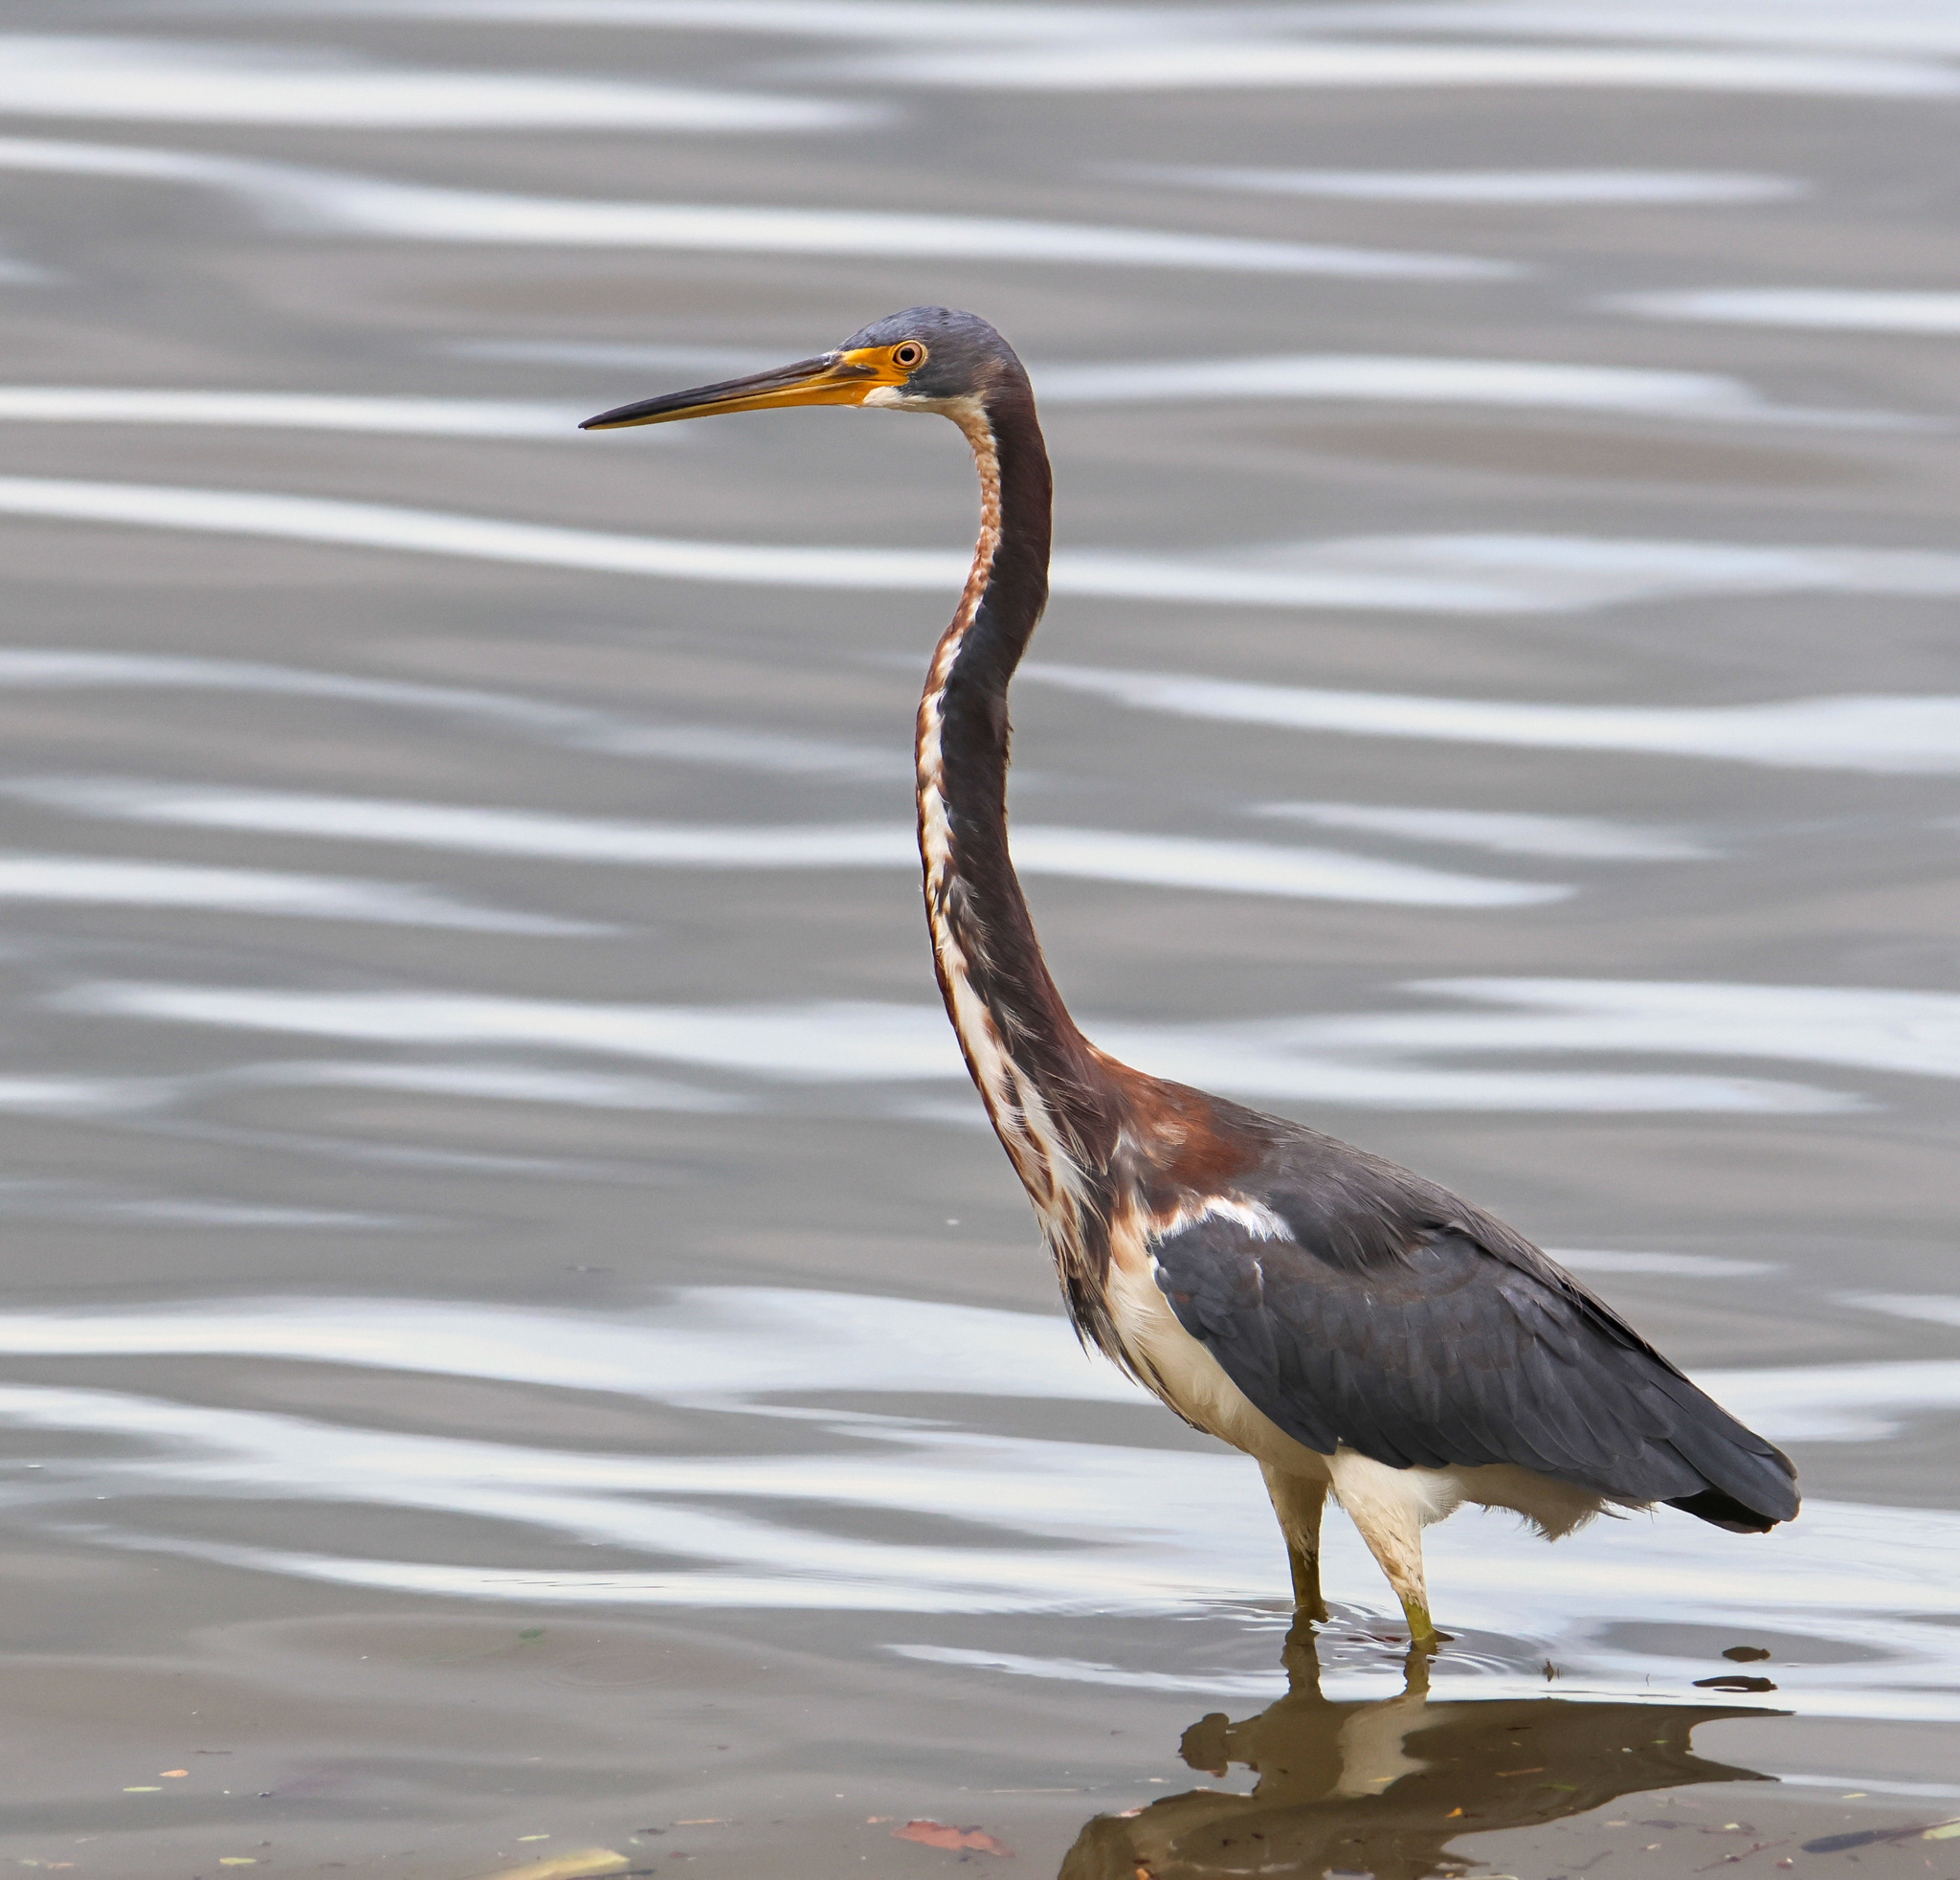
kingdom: Animalia
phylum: Chordata
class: Aves
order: Pelecaniformes
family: Ardeidae
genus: Egretta
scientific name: Egretta tricolor
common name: Tricolored heron
